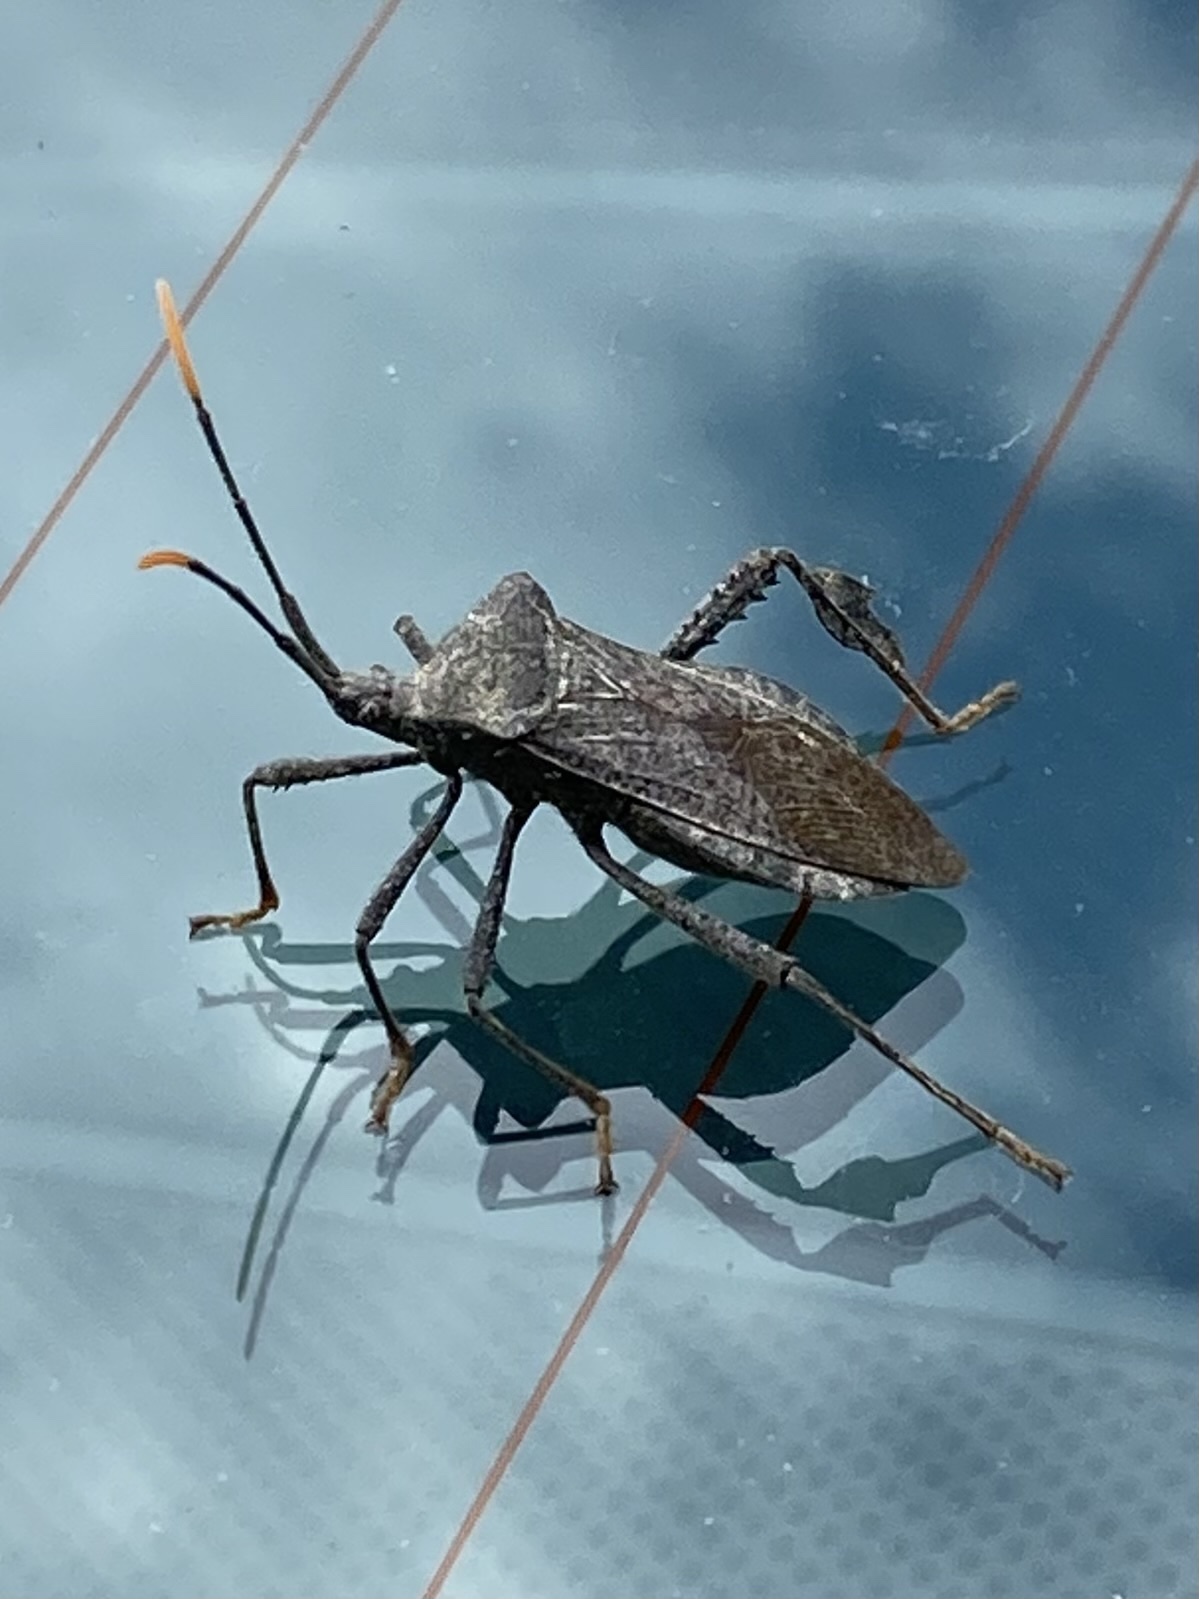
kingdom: Animalia
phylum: Arthropoda
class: Insecta
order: Hemiptera
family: Coreidae
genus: Acanthocephala
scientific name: Acanthocephala terminalis
